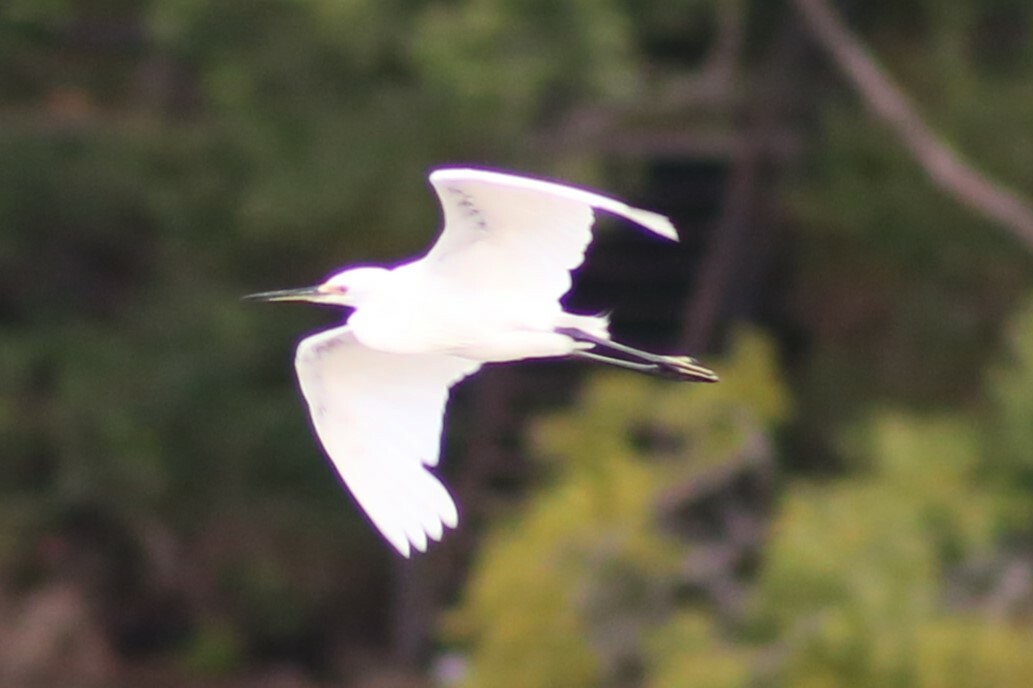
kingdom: Animalia
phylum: Chordata
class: Aves
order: Pelecaniformes
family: Ardeidae
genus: Egretta
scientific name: Egretta garzetta
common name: Little egret
